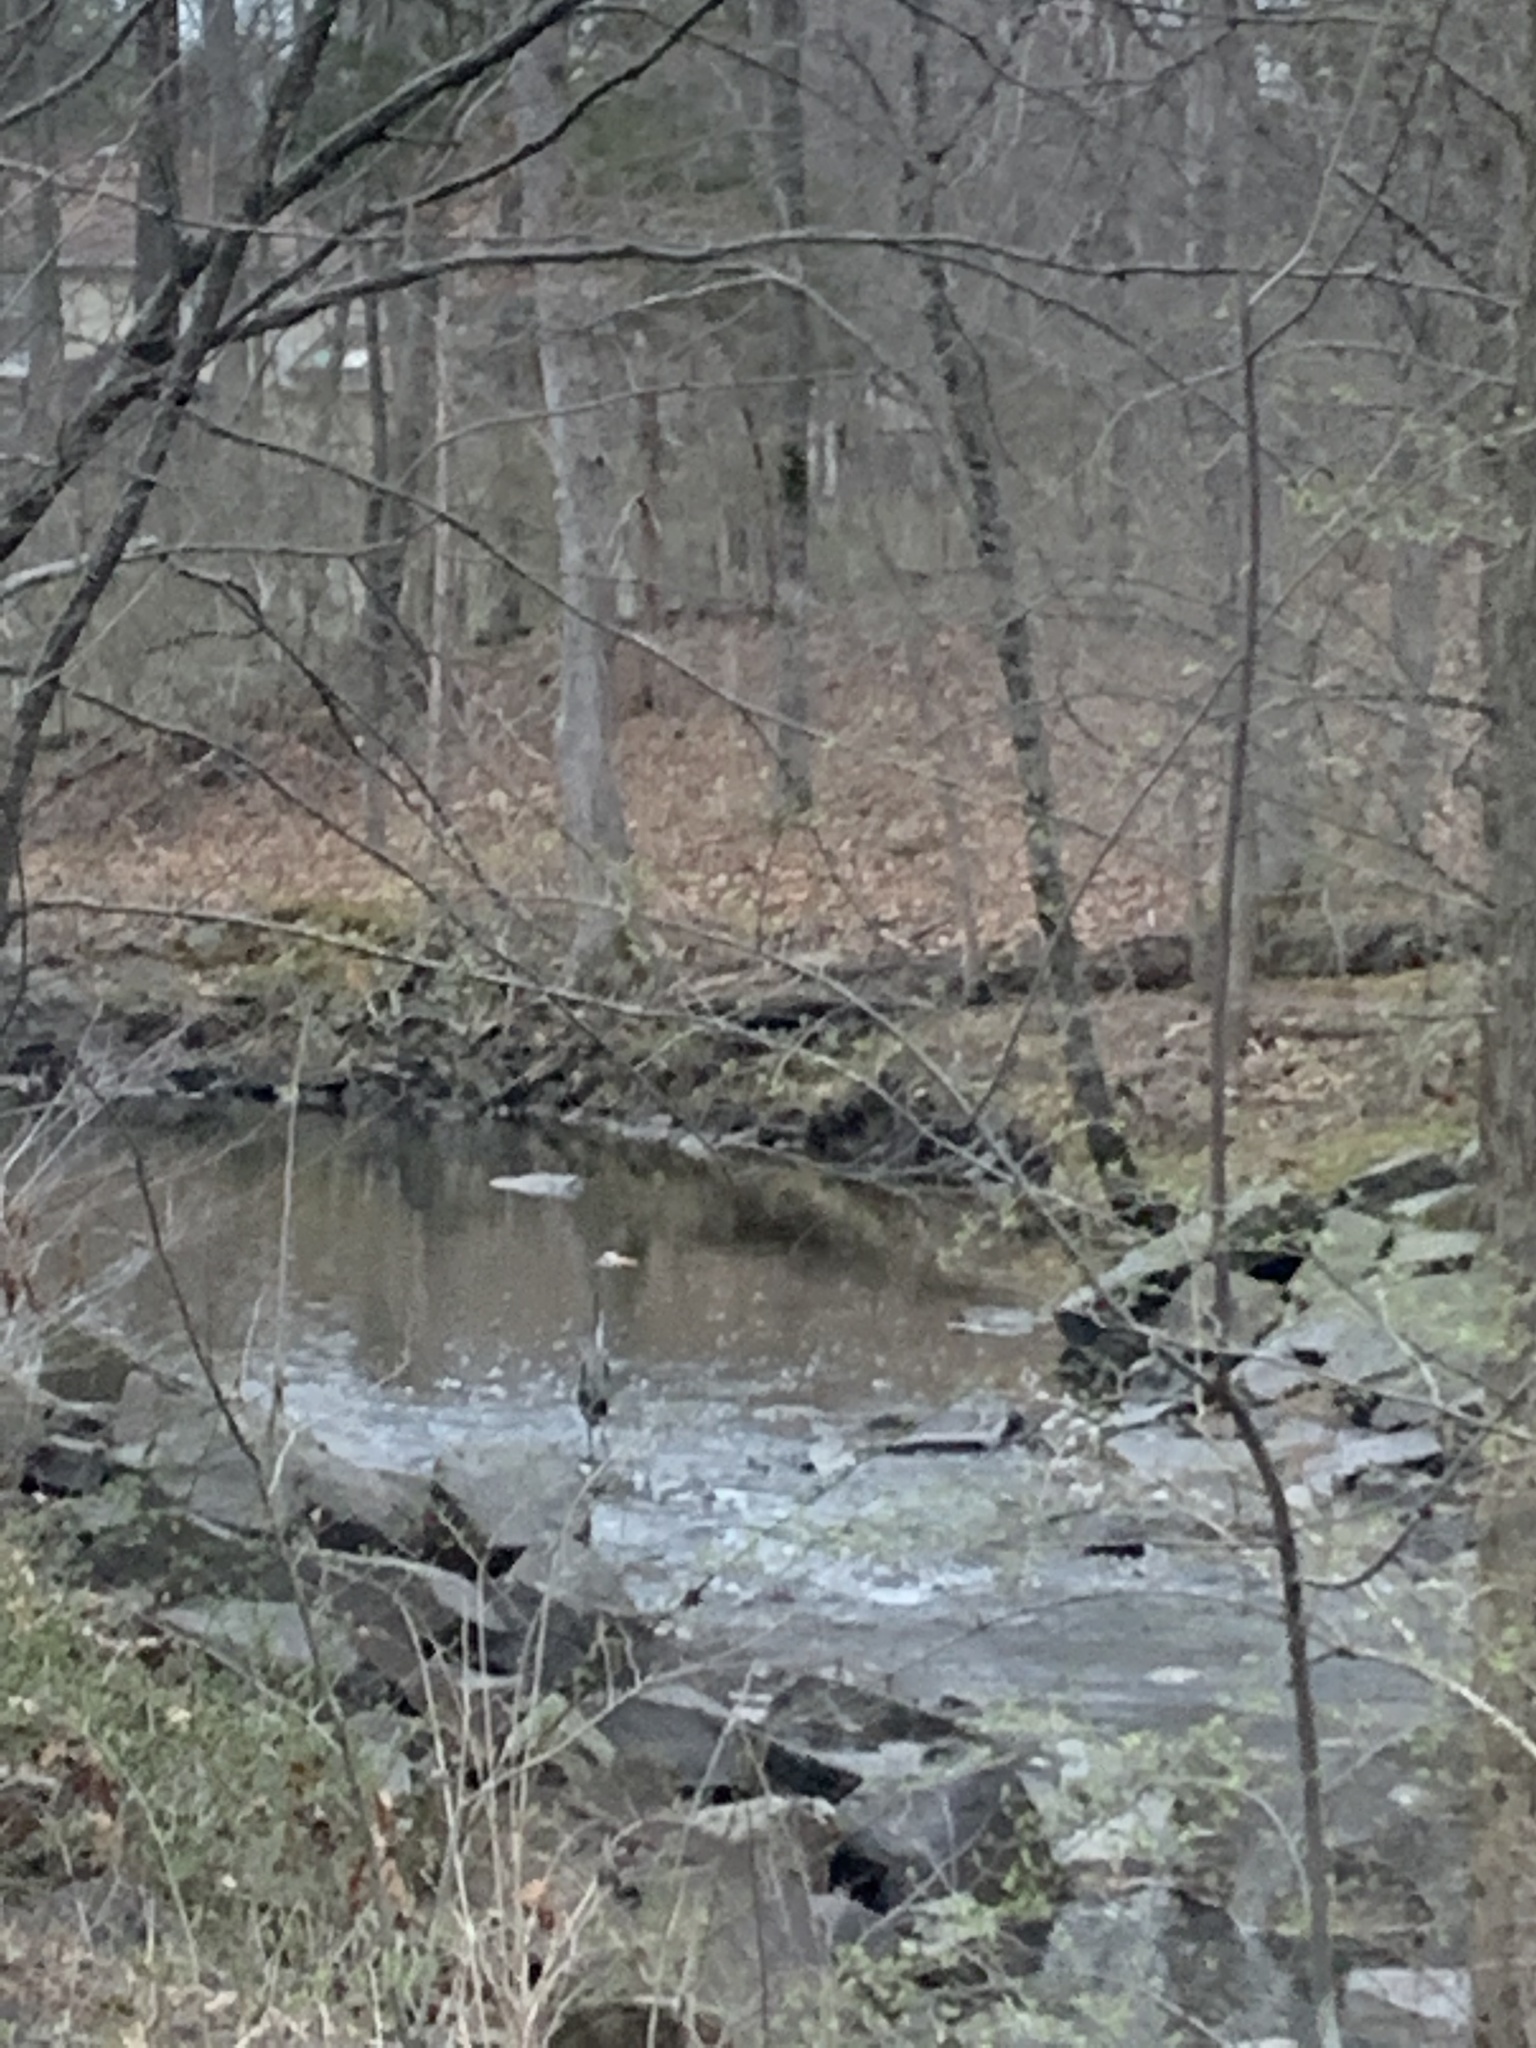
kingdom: Animalia
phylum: Chordata
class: Aves
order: Pelecaniformes
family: Ardeidae
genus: Ardea
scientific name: Ardea herodias
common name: Great blue heron
